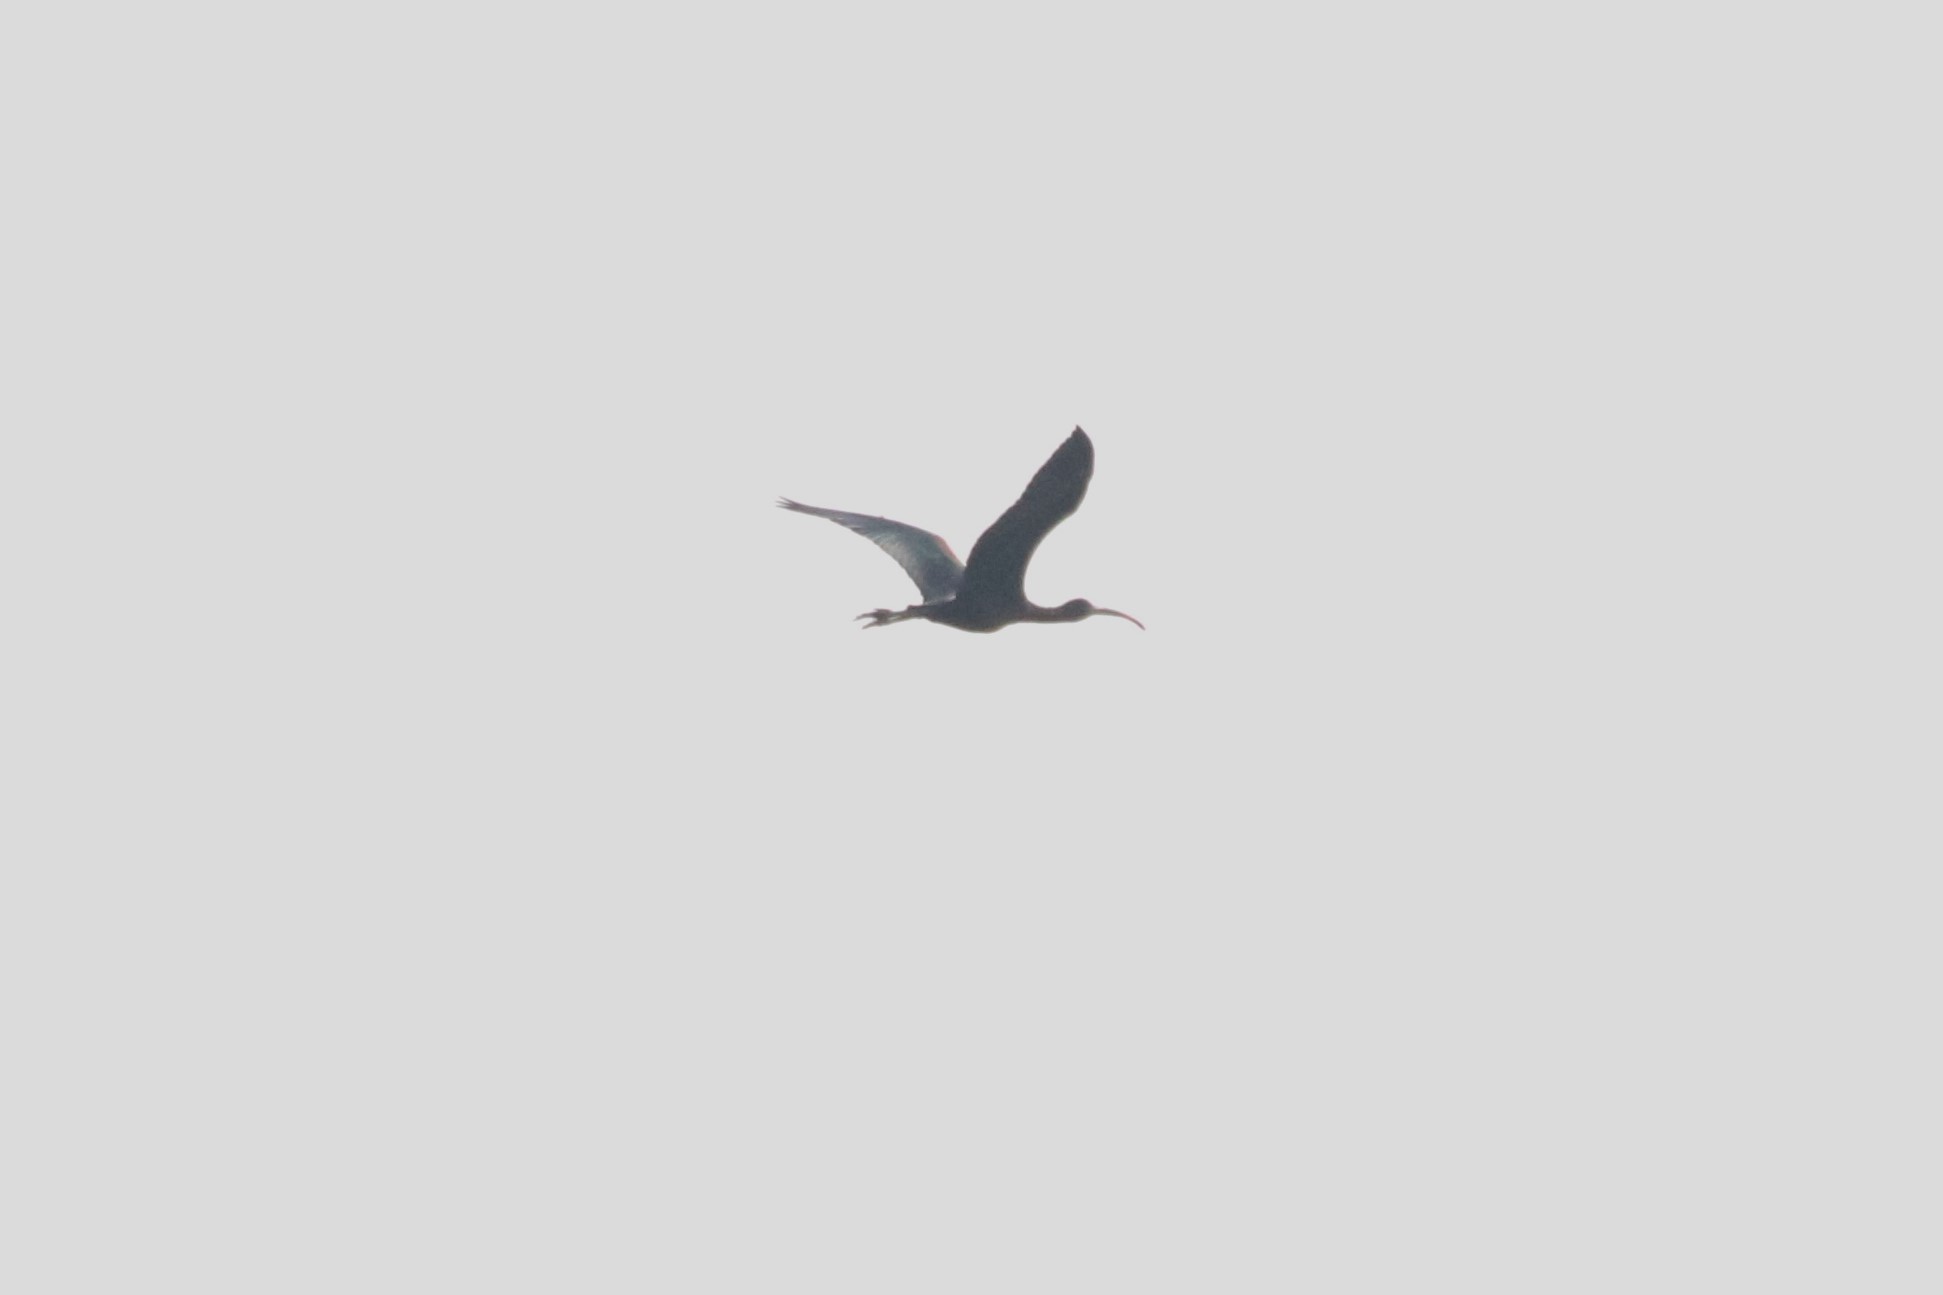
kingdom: Animalia
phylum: Chordata
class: Aves
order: Pelecaniformes
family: Threskiornithidae
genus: Plegadis
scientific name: Plegadis falcinellus
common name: Glossy ibis
